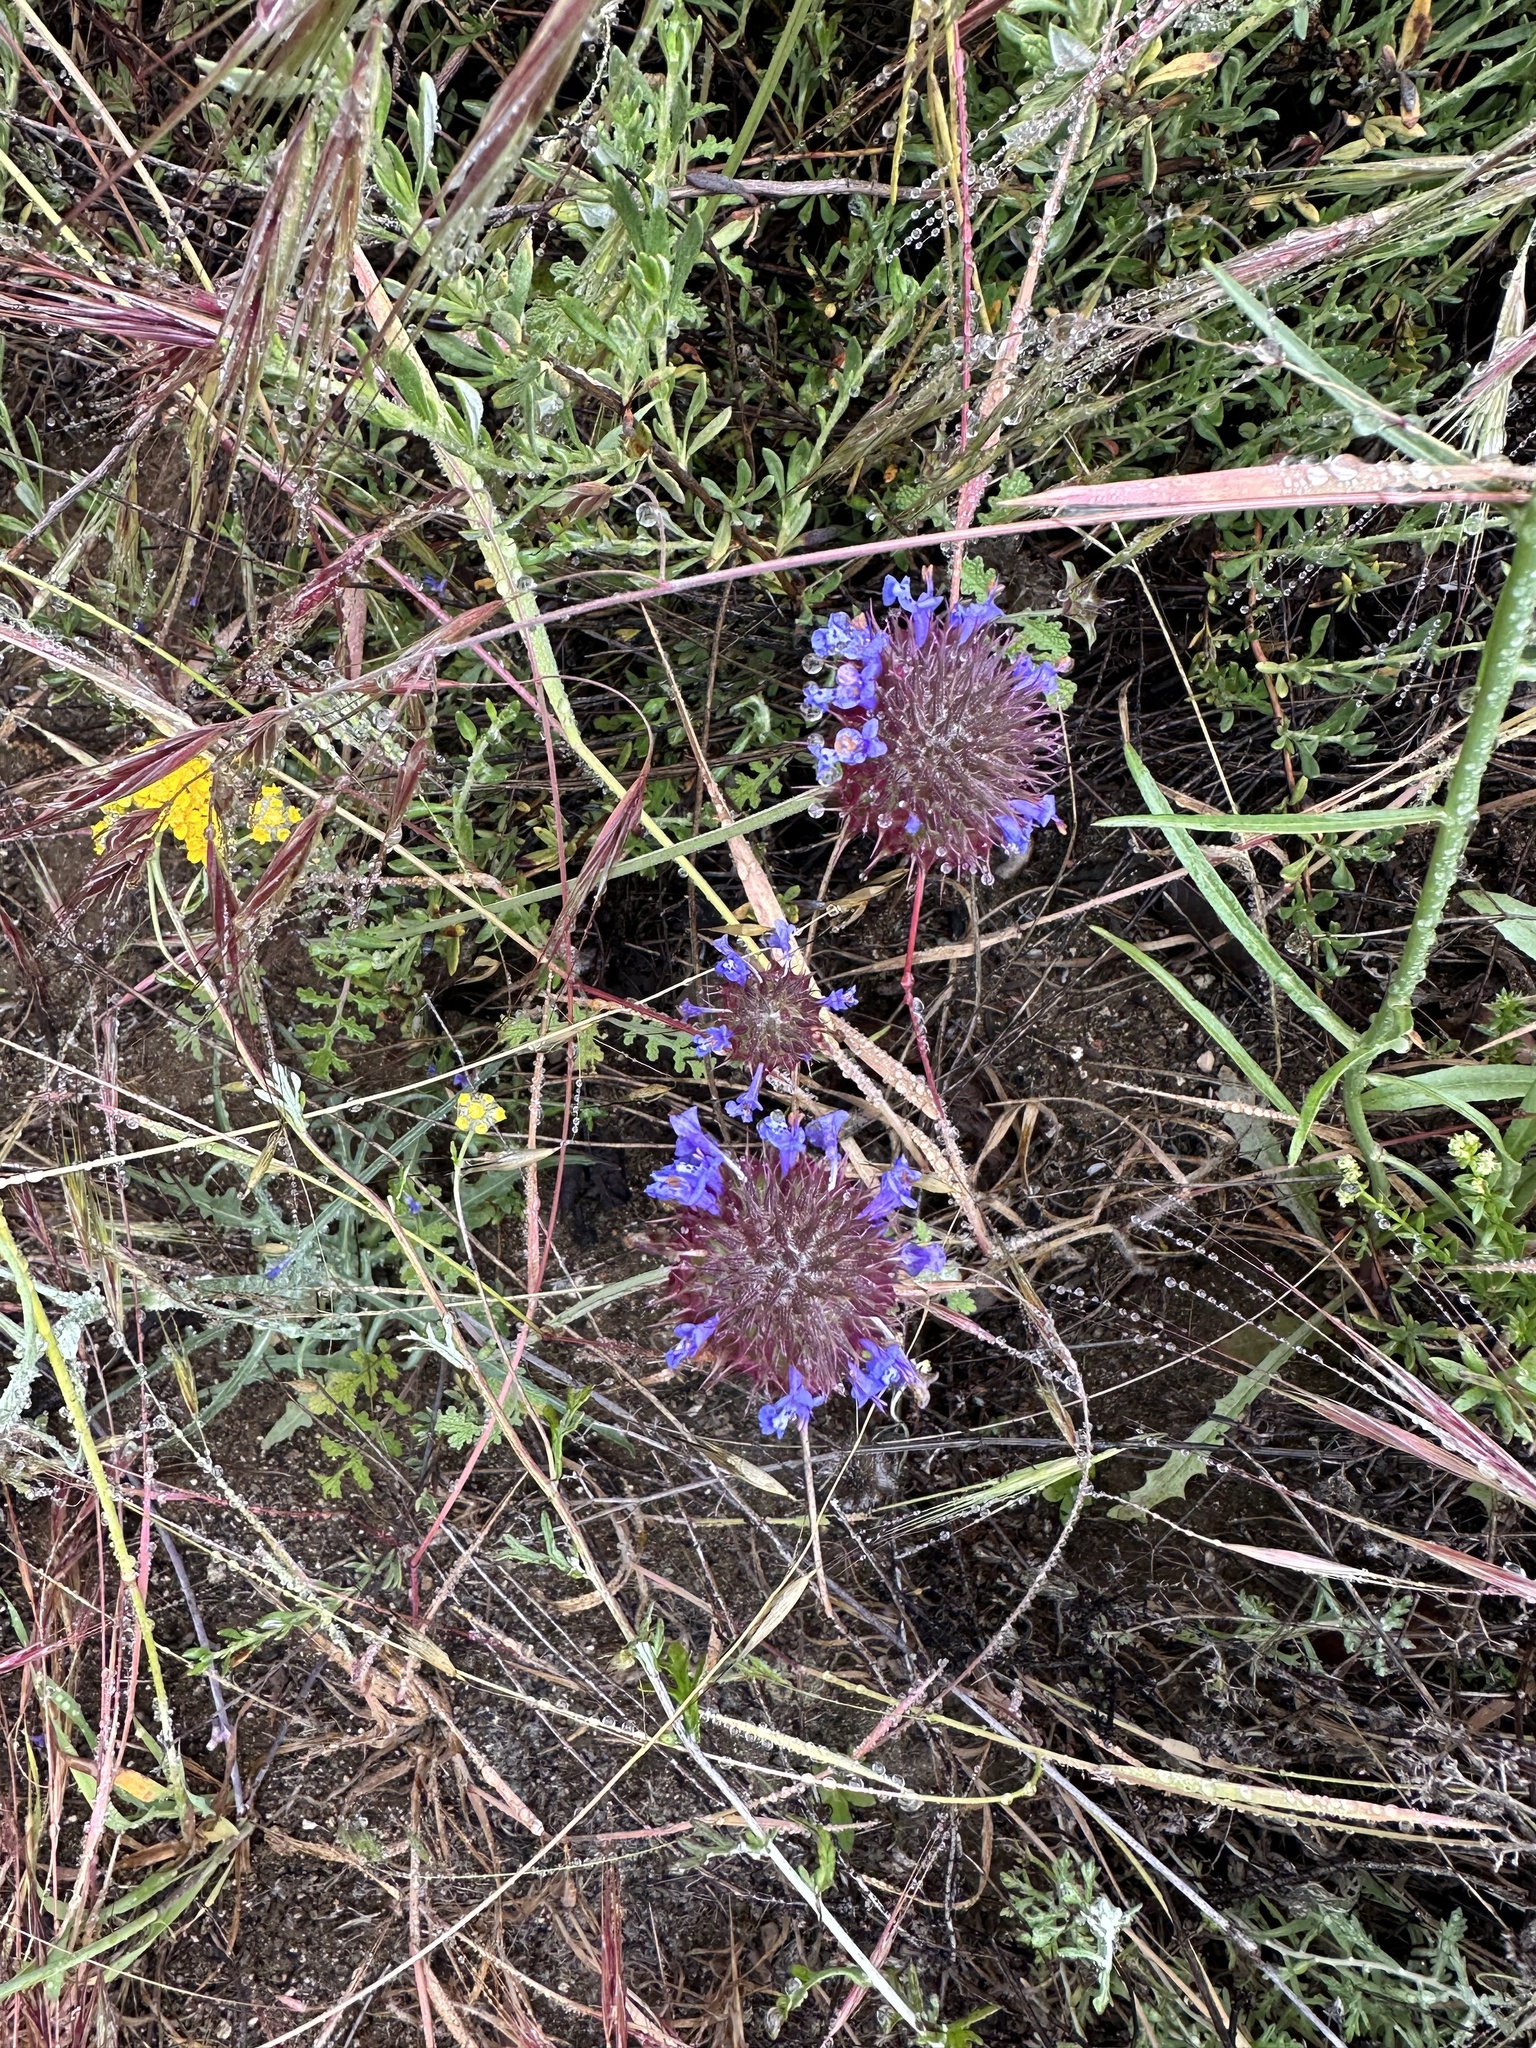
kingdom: Plantae
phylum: Tracheophyta
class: Magnoliopsida
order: Lamiales
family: Lamiaceae
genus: Salvia
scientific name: Salvia columbariae
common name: Chia
